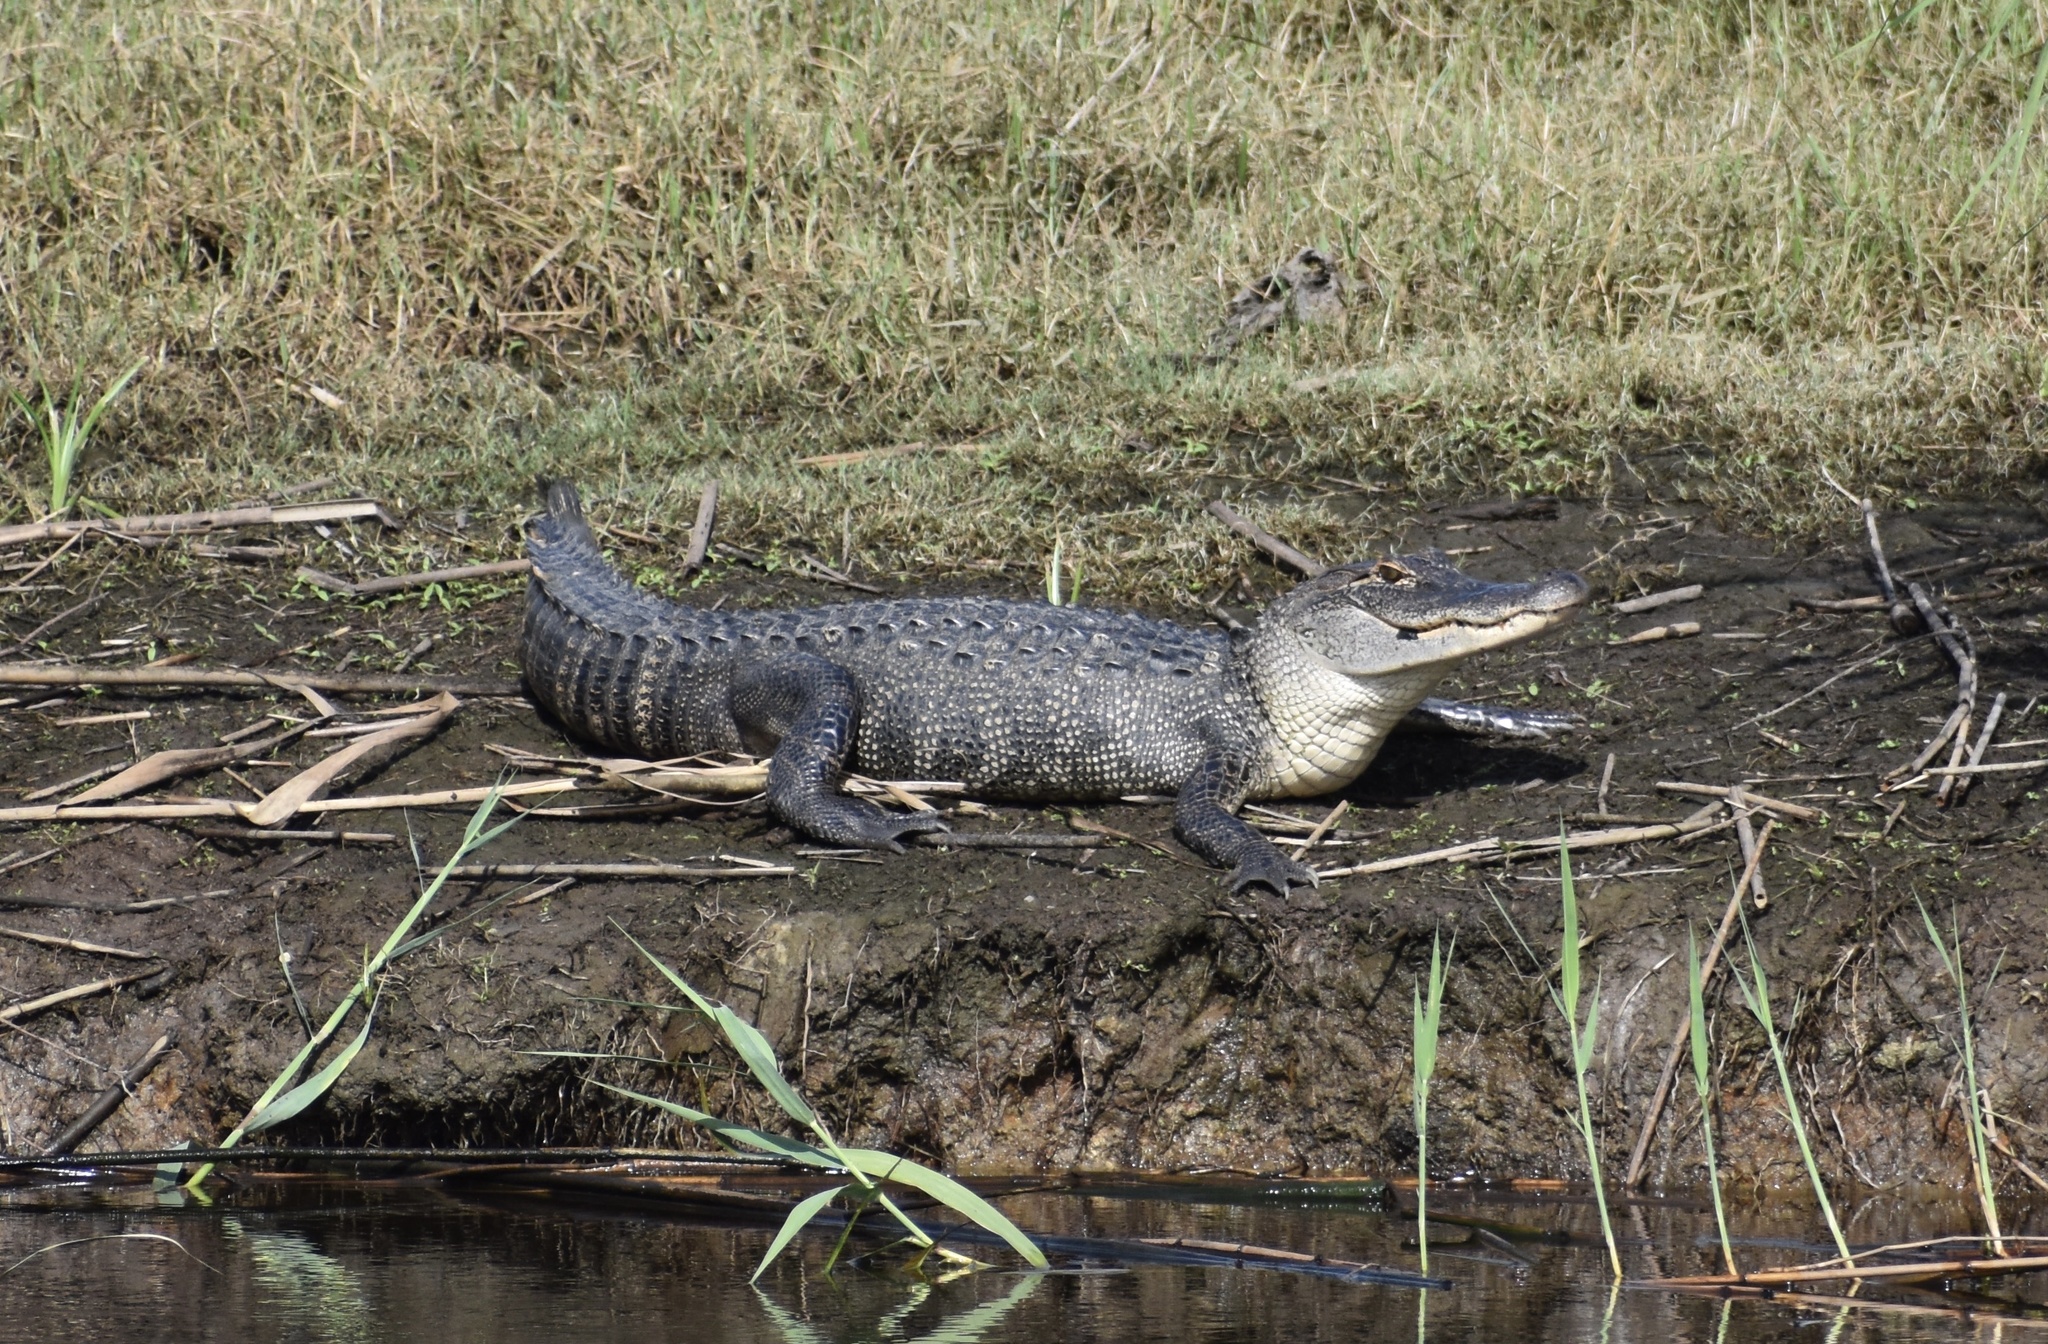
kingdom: Animalia
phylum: Chordata
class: Crocodylia
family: Alligatoridae
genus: Alligator
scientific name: Alligator mississippiensis
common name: American alligator
